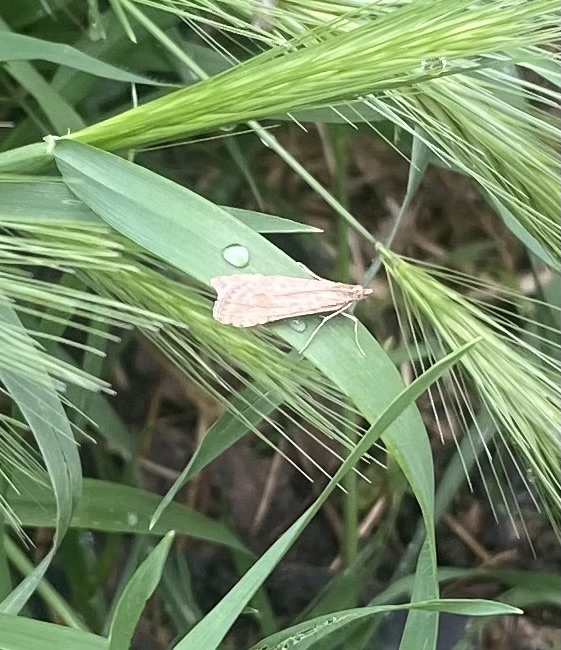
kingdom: Animalia
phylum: Arthropoda
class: Insecta
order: Lepidoptera
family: Crambidae
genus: Nomophila
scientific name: Nomophila noctuella
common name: Rush veneer
